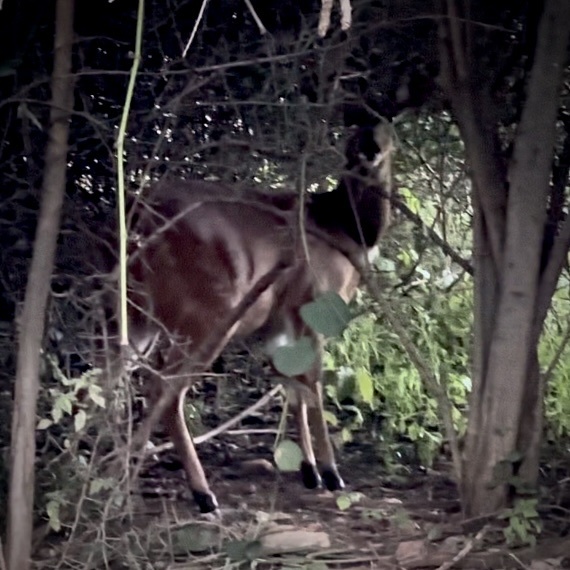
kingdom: Animalia
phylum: Chordata
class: Mammalia
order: Artiodactyla
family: Bovidae
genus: Tragelaphus
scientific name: Tragelaphus scriptus
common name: Bushbuck
